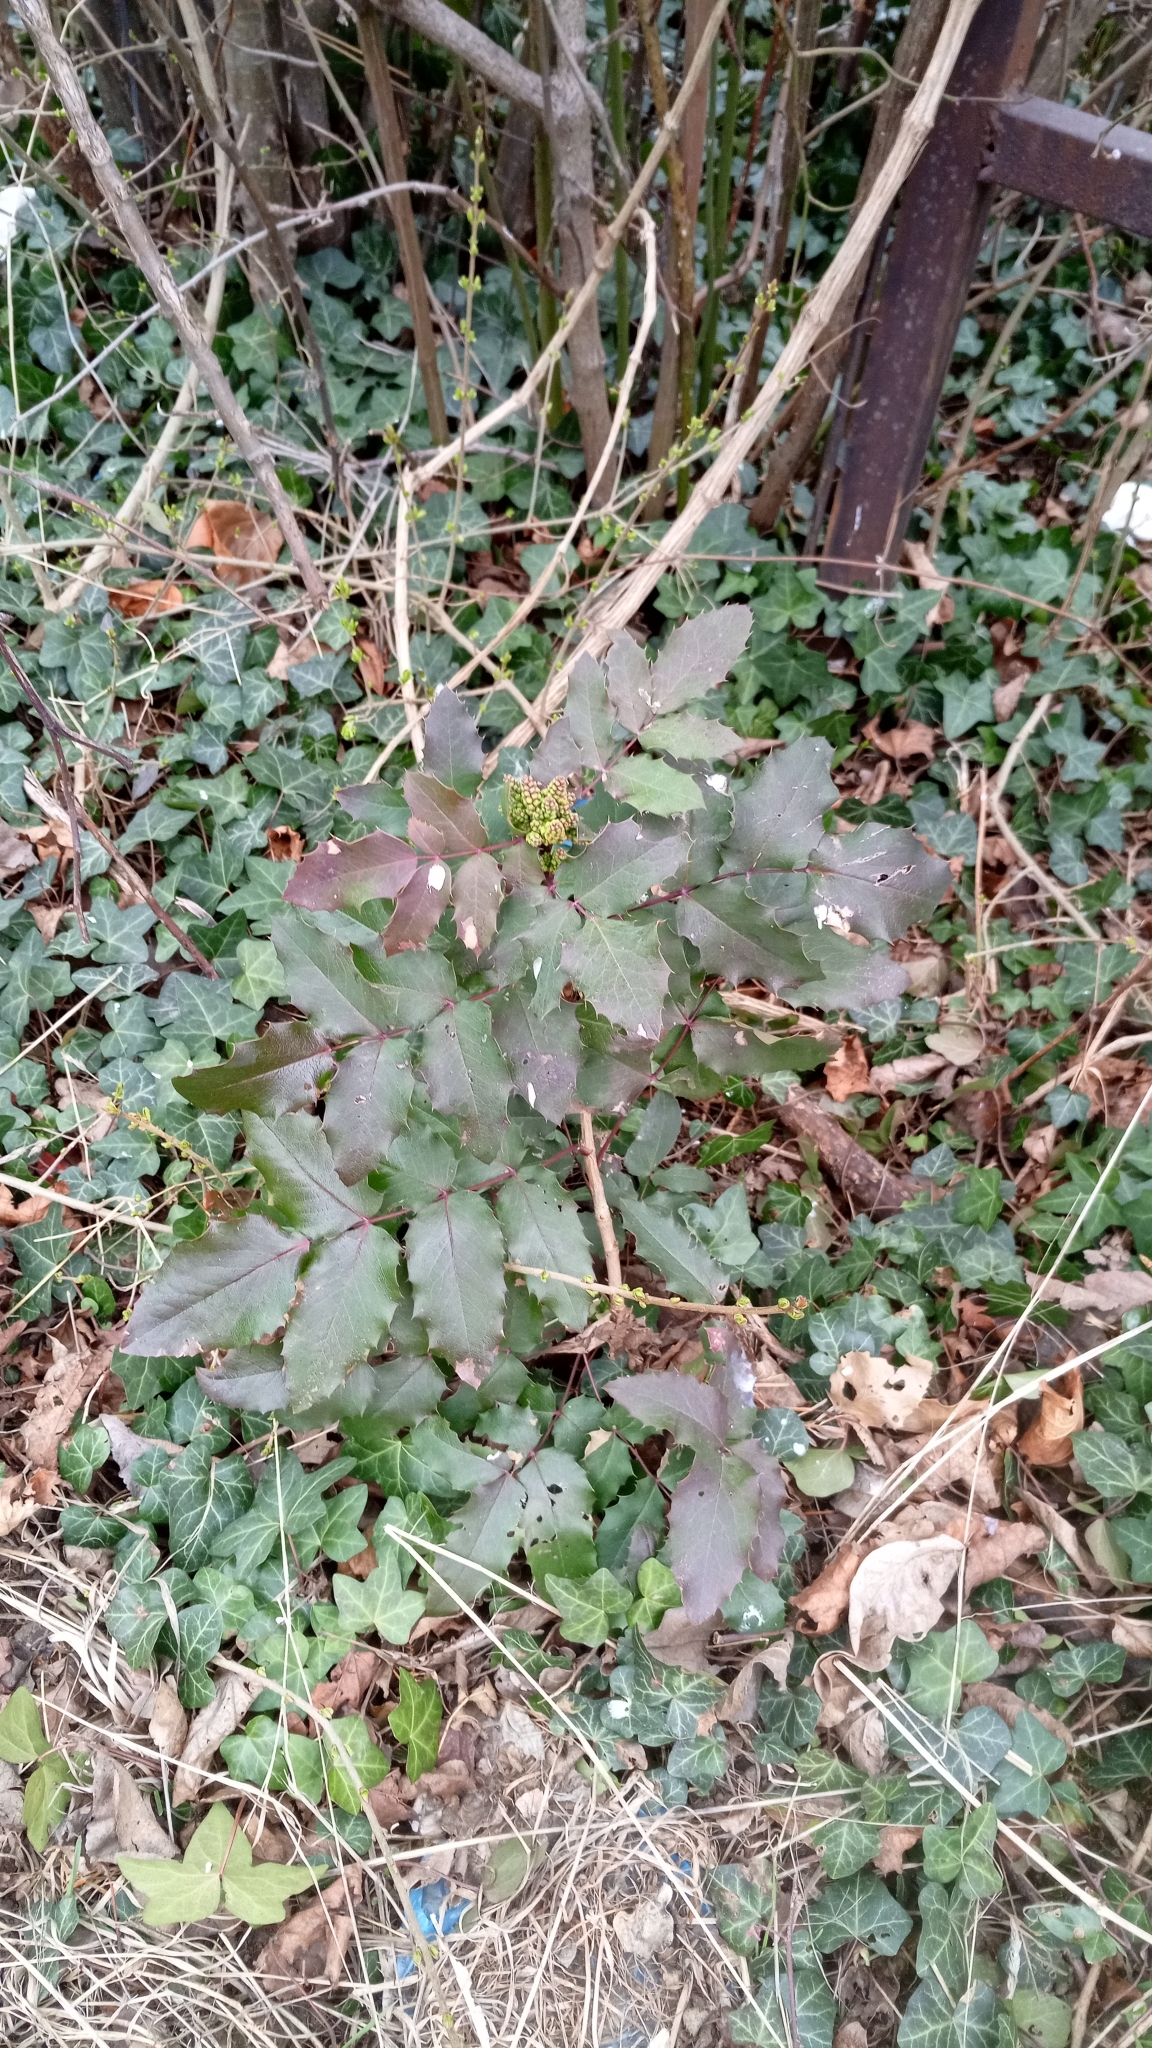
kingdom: Plantae
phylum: Tracheophyta
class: Magnoliopsida
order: Ranunculales
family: Berberidaceae
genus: Mahonia
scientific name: Mahonia aquifolium
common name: Oregon-grape
